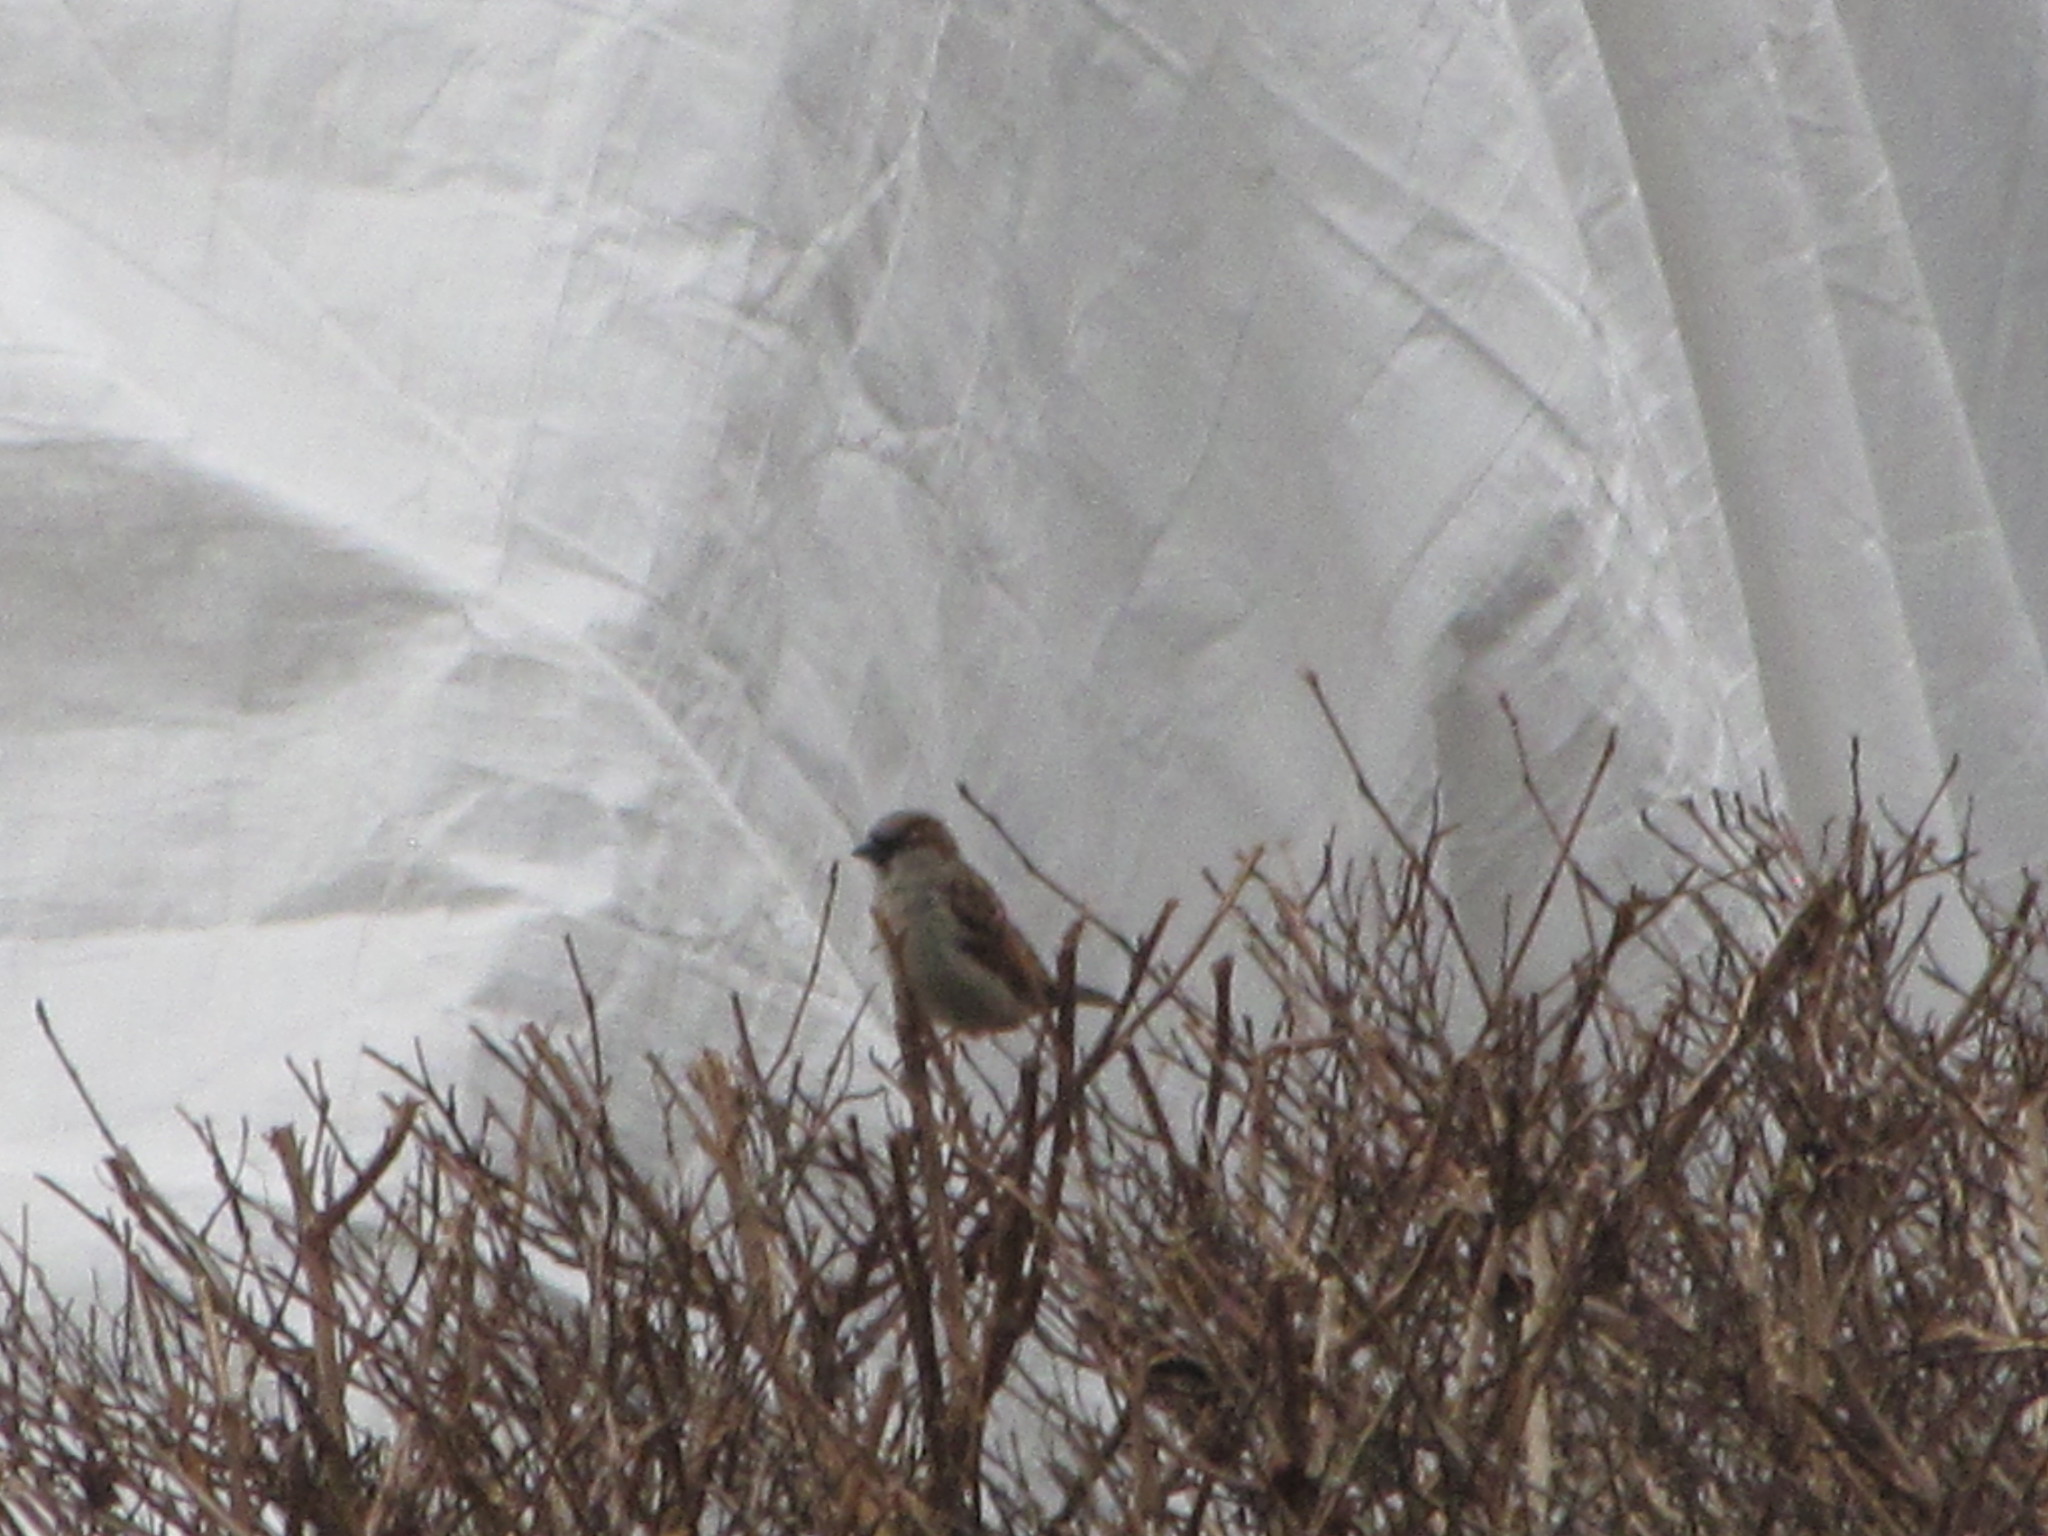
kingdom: Animalia
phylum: Chordata
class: Aves
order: Passeriformes
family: Passeridae
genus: Passer
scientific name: Passer domesticus
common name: House sparrow
